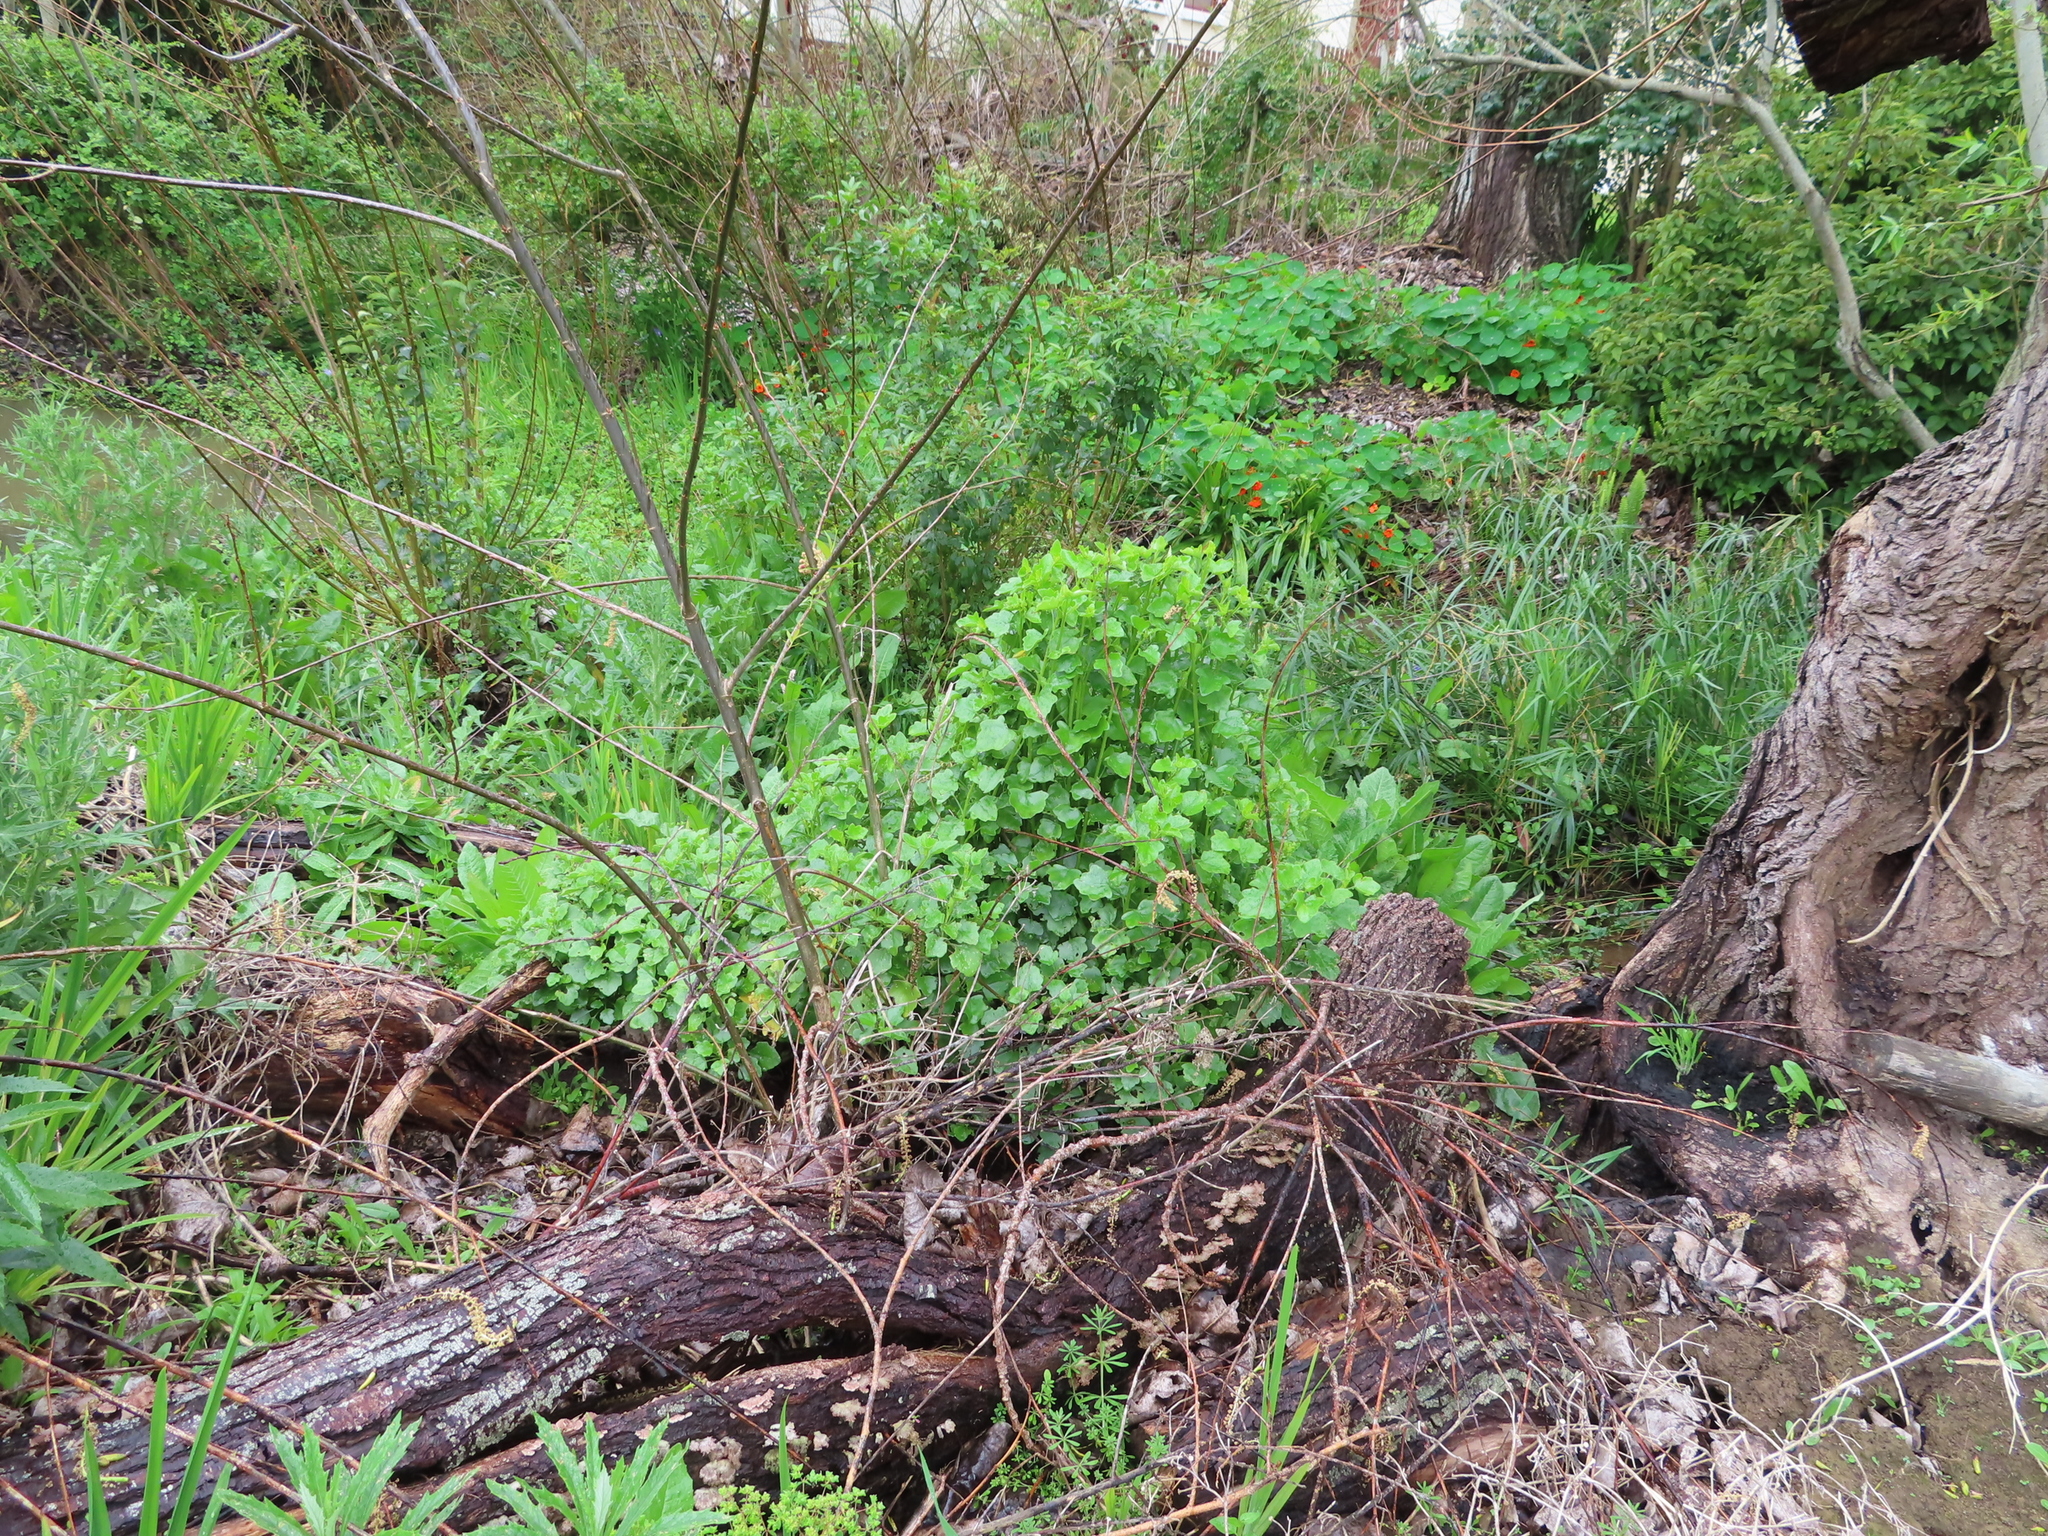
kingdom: Plantae
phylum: Tracheophyta
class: Magnoliopsida
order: Asterales
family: Asteraceae
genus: Senecio
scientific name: Senecio angulatus
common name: Climbing groundsel
